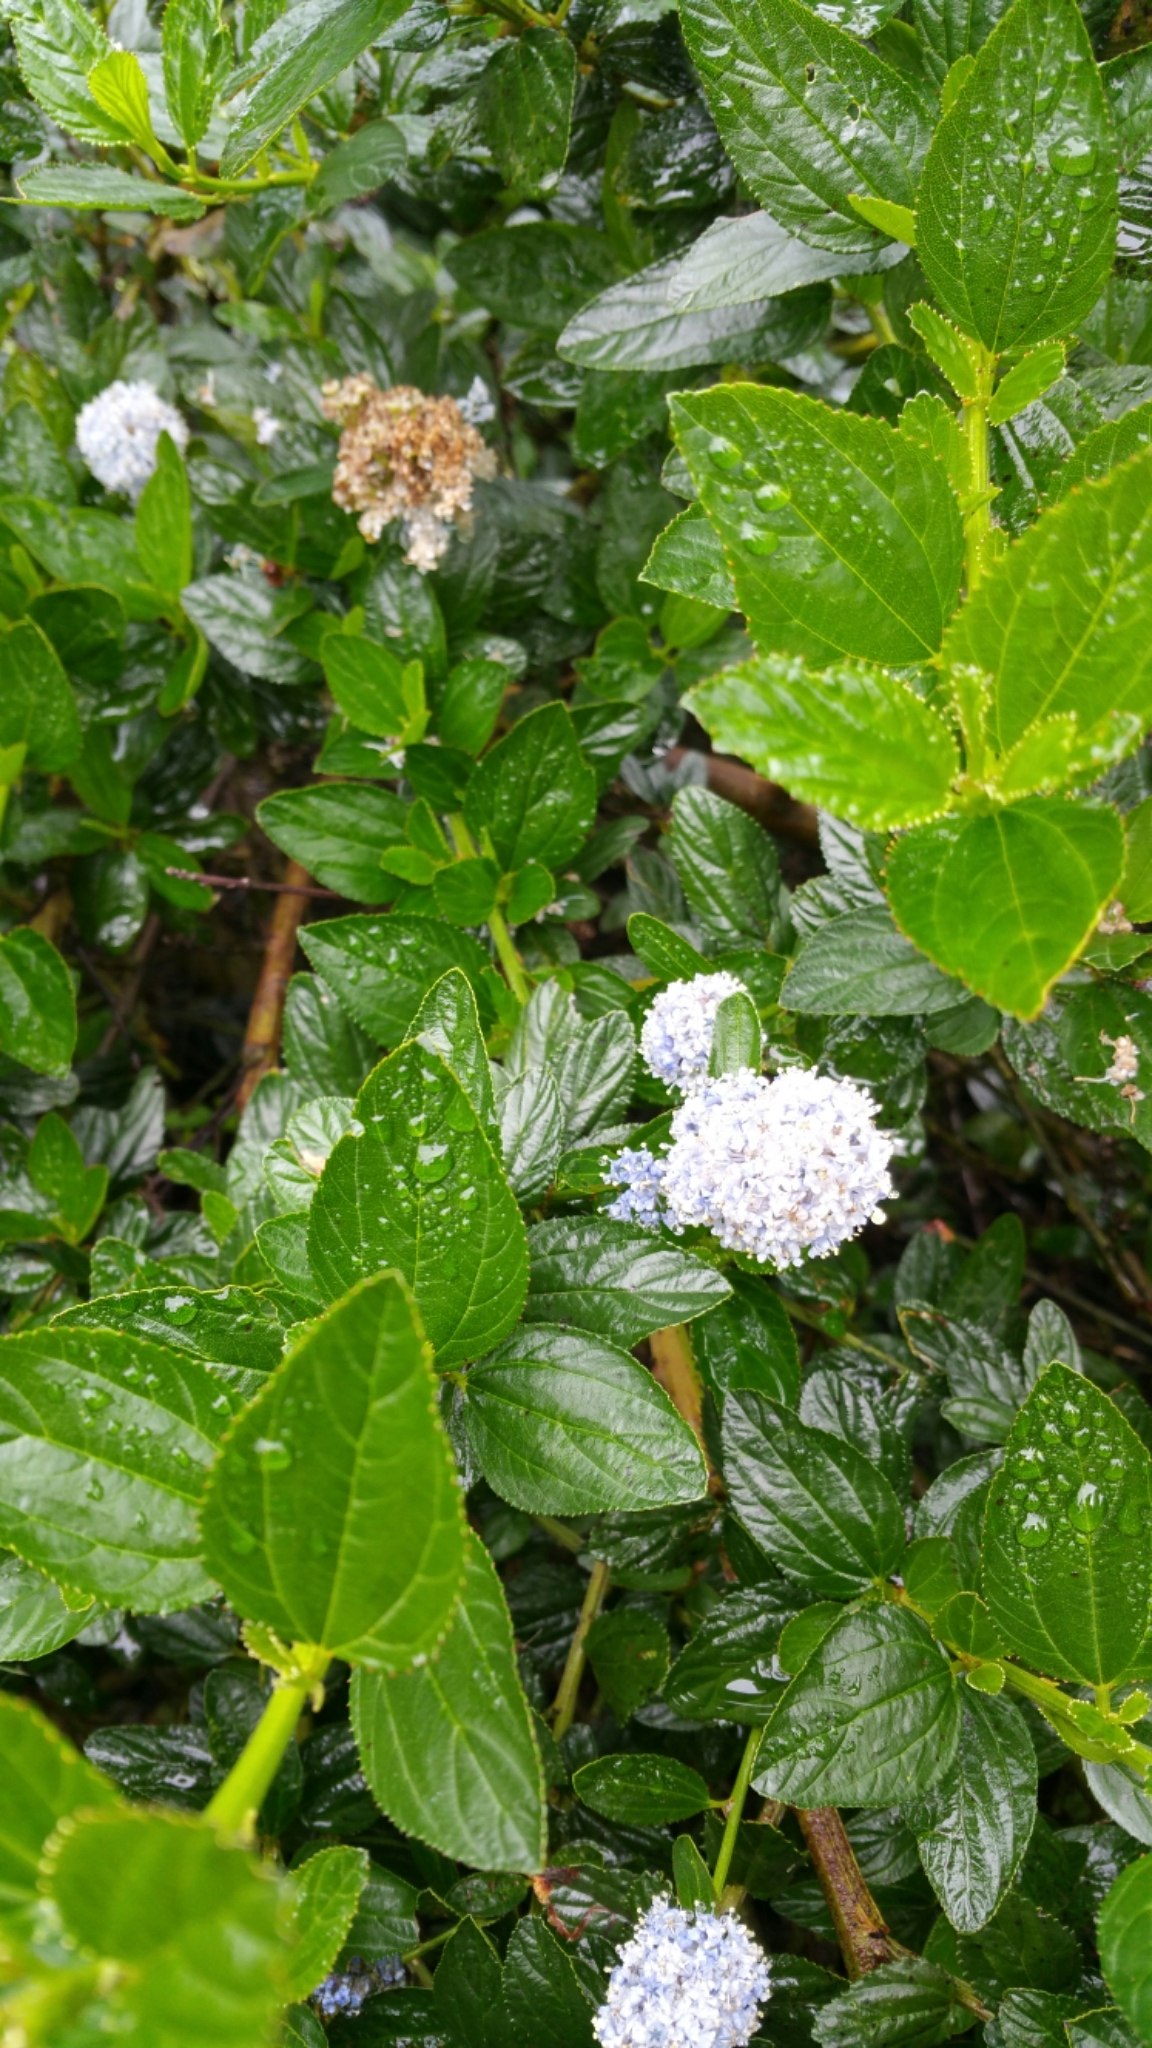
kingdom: Plantae
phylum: Tracheophyta
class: Magnoliopsida
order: Rosales
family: Rhamnaceae
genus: Ceanothus
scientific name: Ceanothus thyrsiflorus
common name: California-lilac
